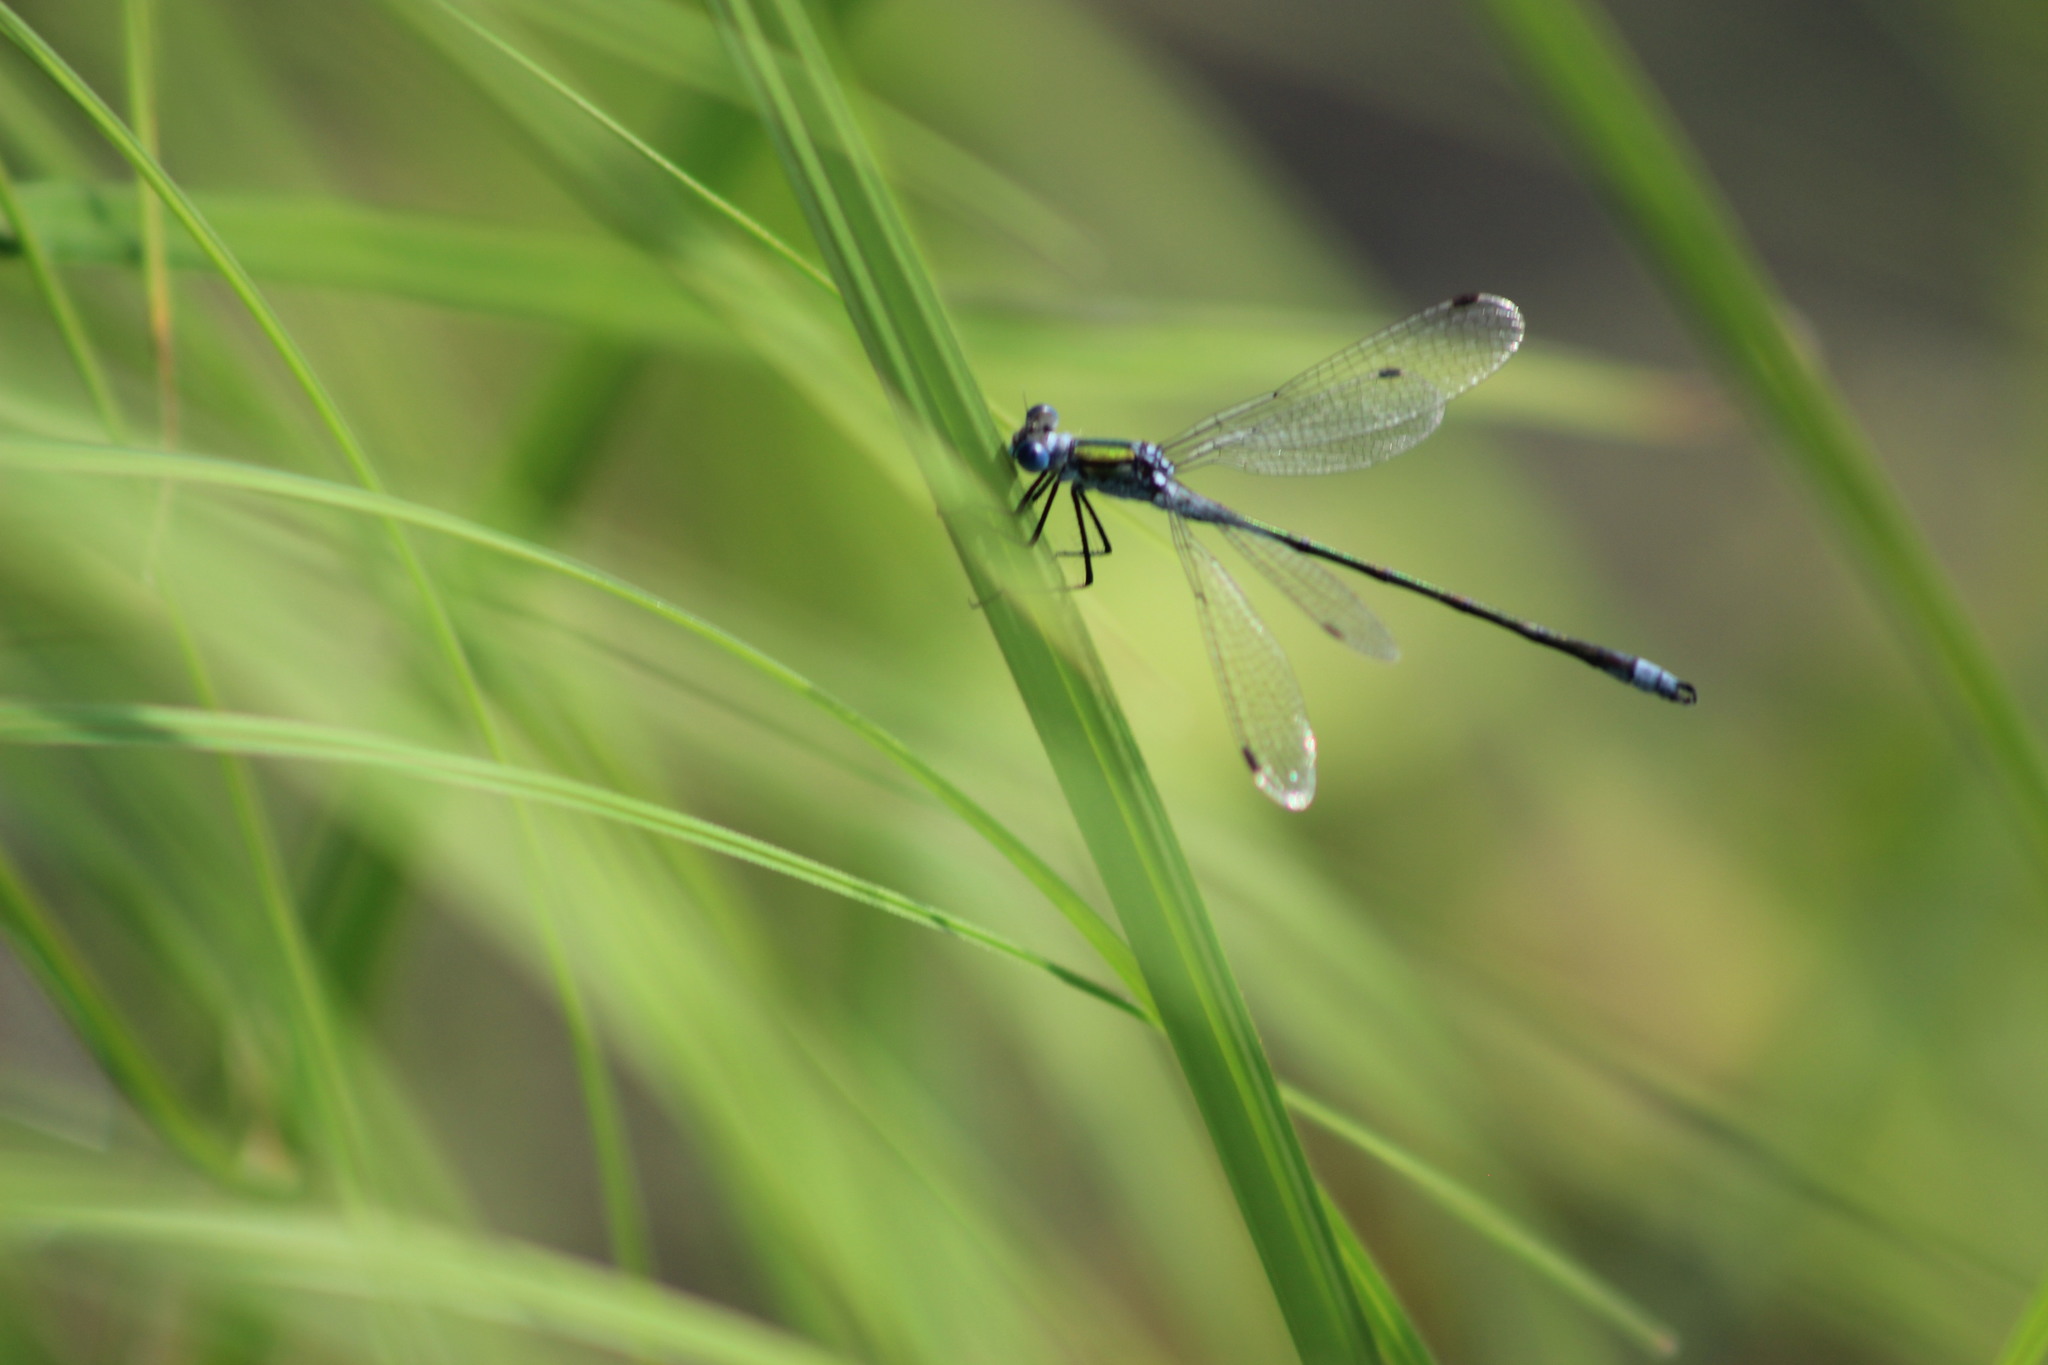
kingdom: Animalia
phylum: Arthropoda
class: Insecta
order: Odonata
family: Lestidae
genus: Lestes
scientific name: Lestes sponsa
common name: Common spreadwing
